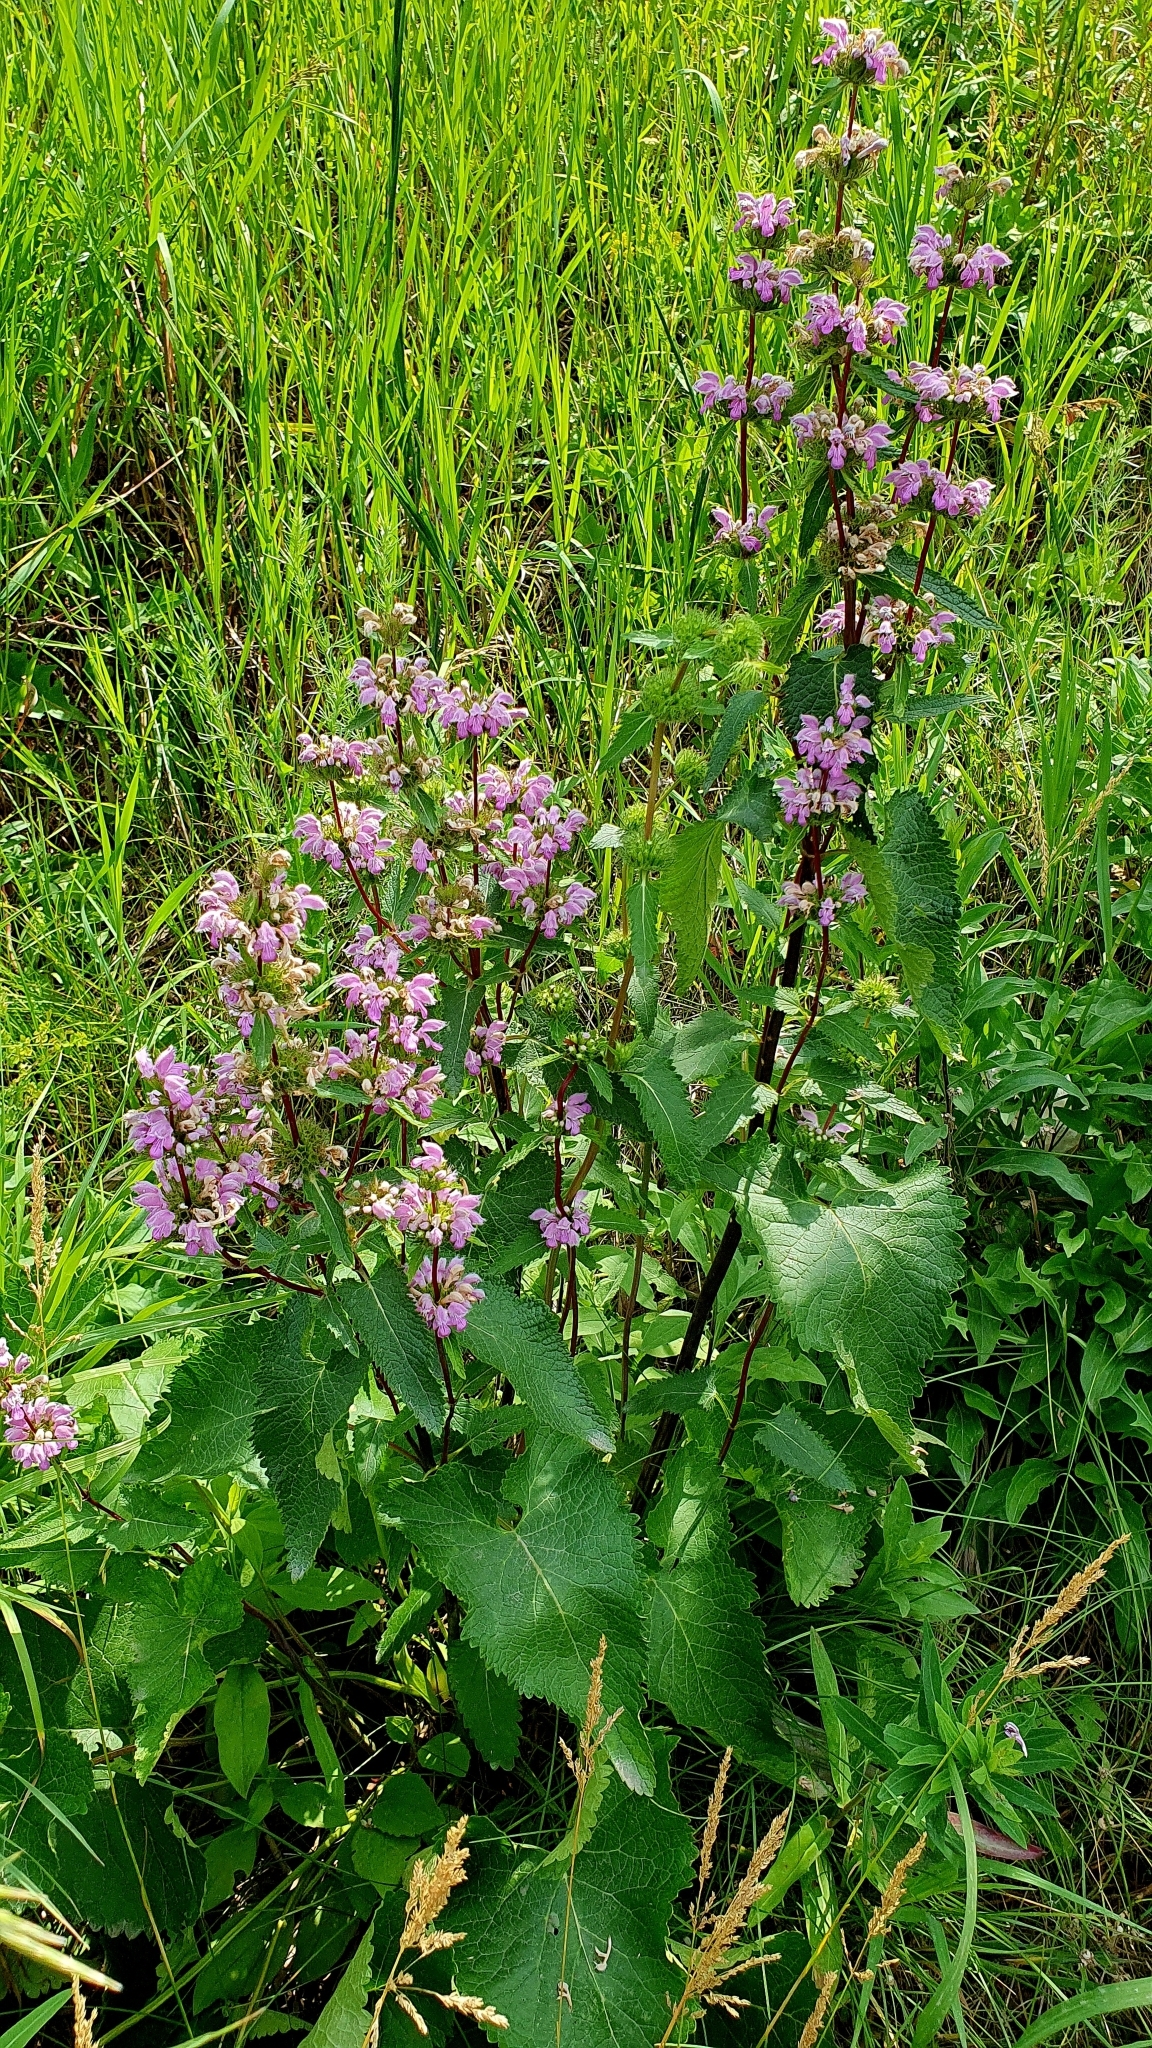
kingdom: Plantae
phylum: Tracheophyta
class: Magnoliopsida
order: Lamiales
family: Lamiaceae
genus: Phlomoides
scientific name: Phlomoides tuberosa
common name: Tuberous jerusalem sage
